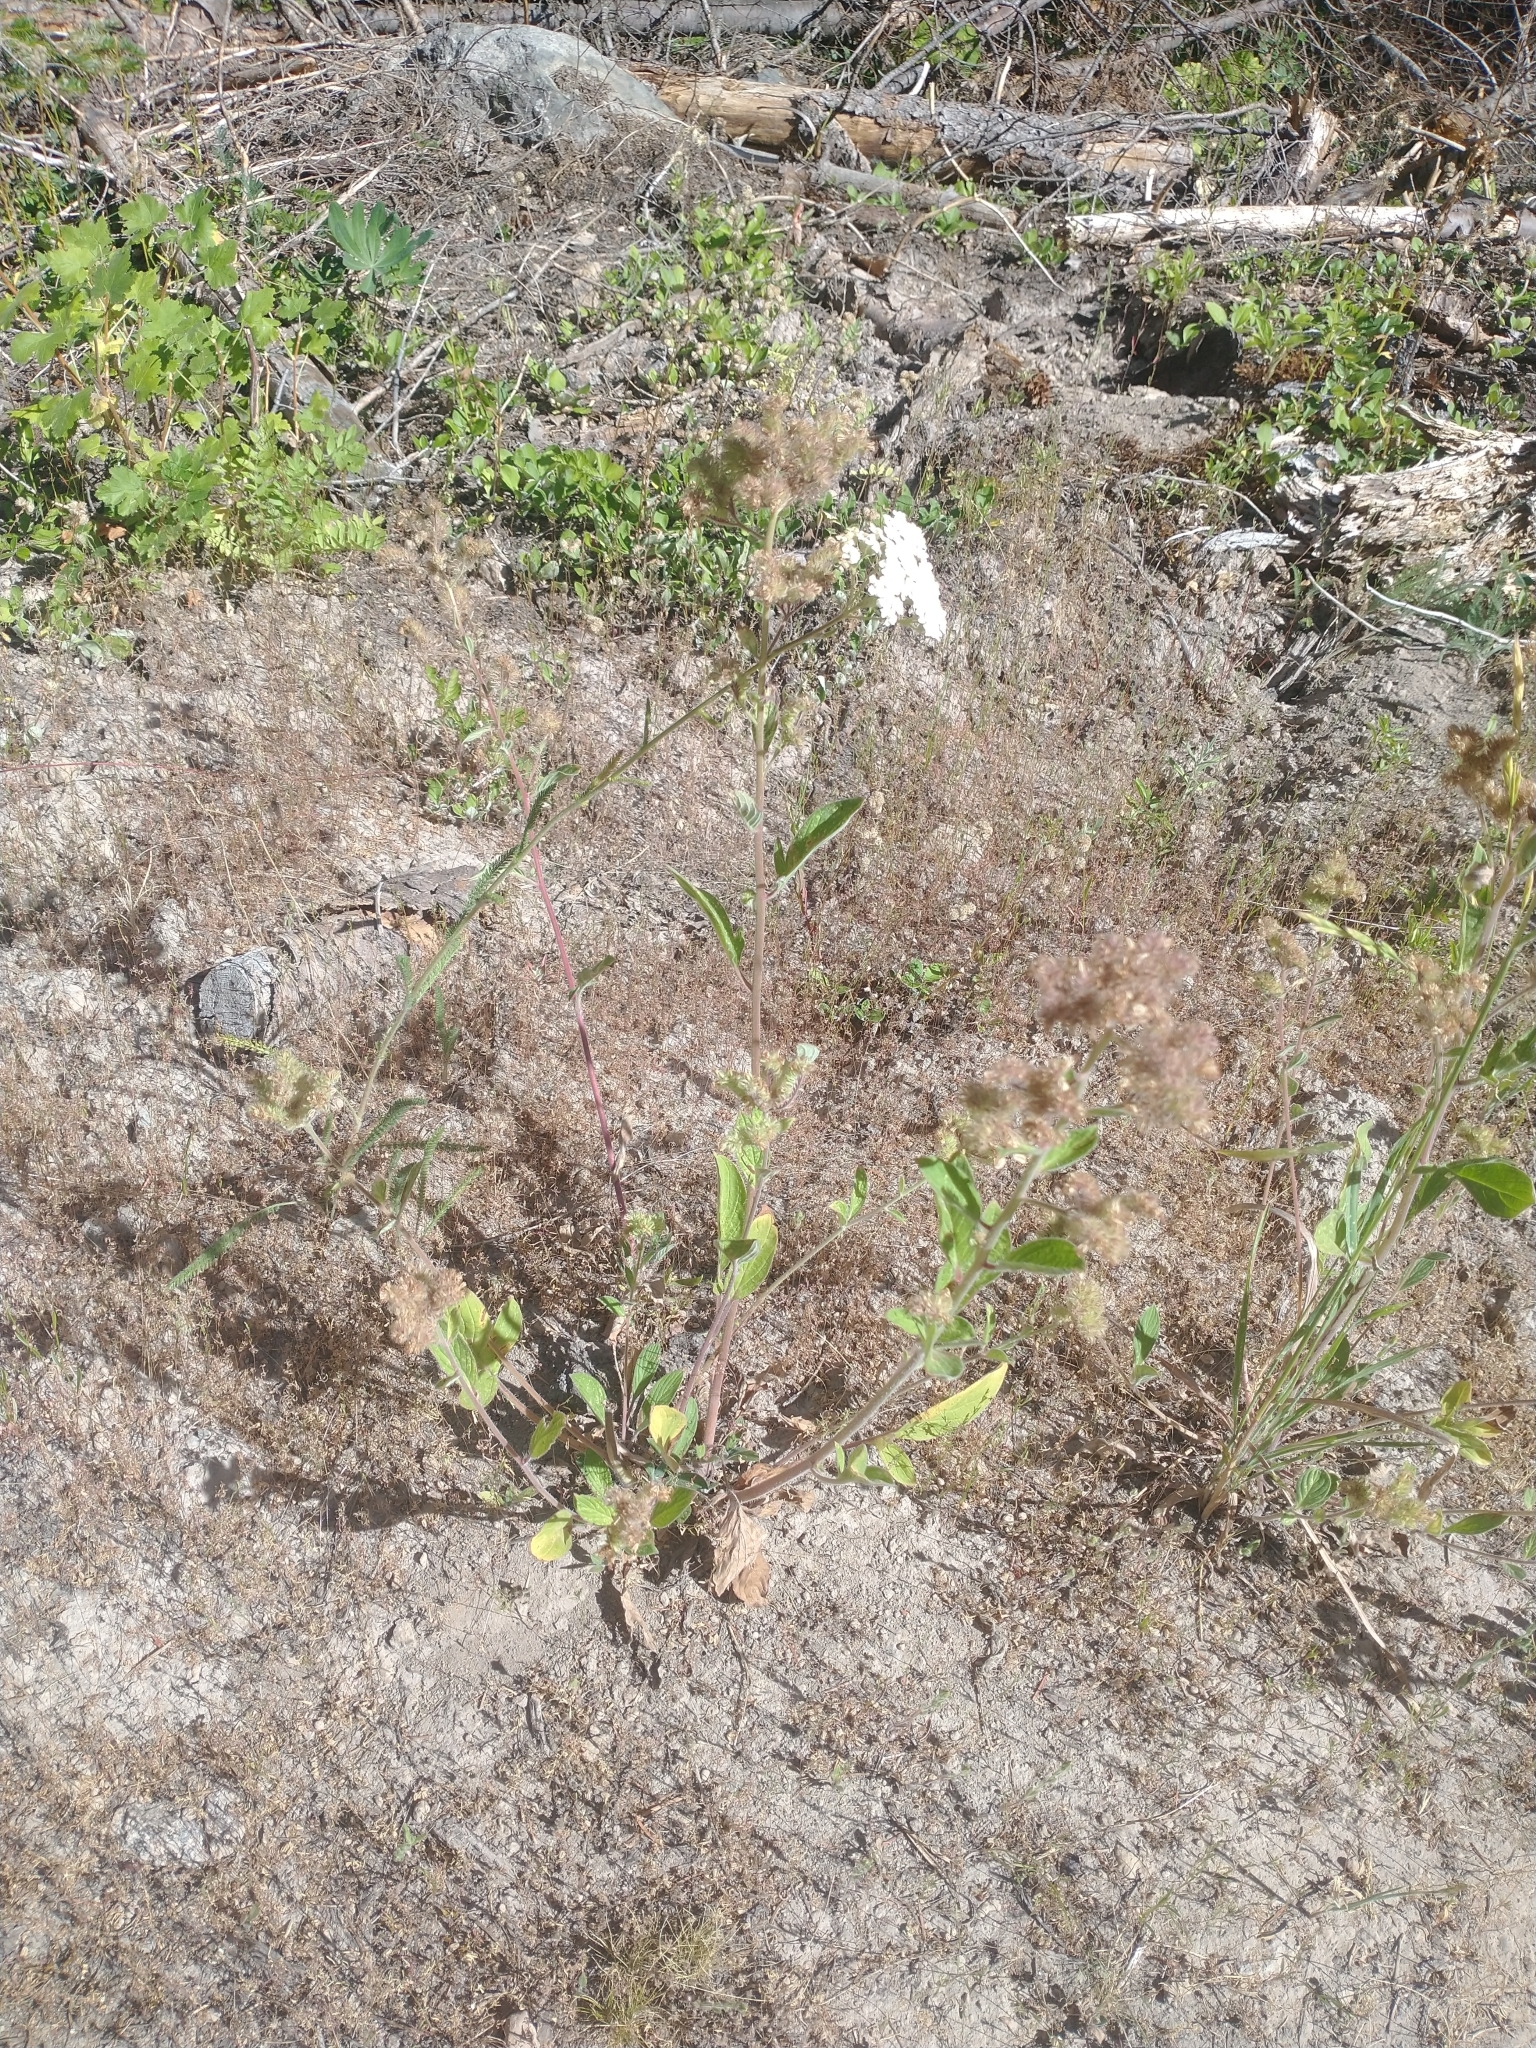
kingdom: Plantae
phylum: Tracheophyta
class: Magnoliopsida
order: Asterales
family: Asteraceae
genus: Achillea
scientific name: Achillea millefolium
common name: Yarrow
